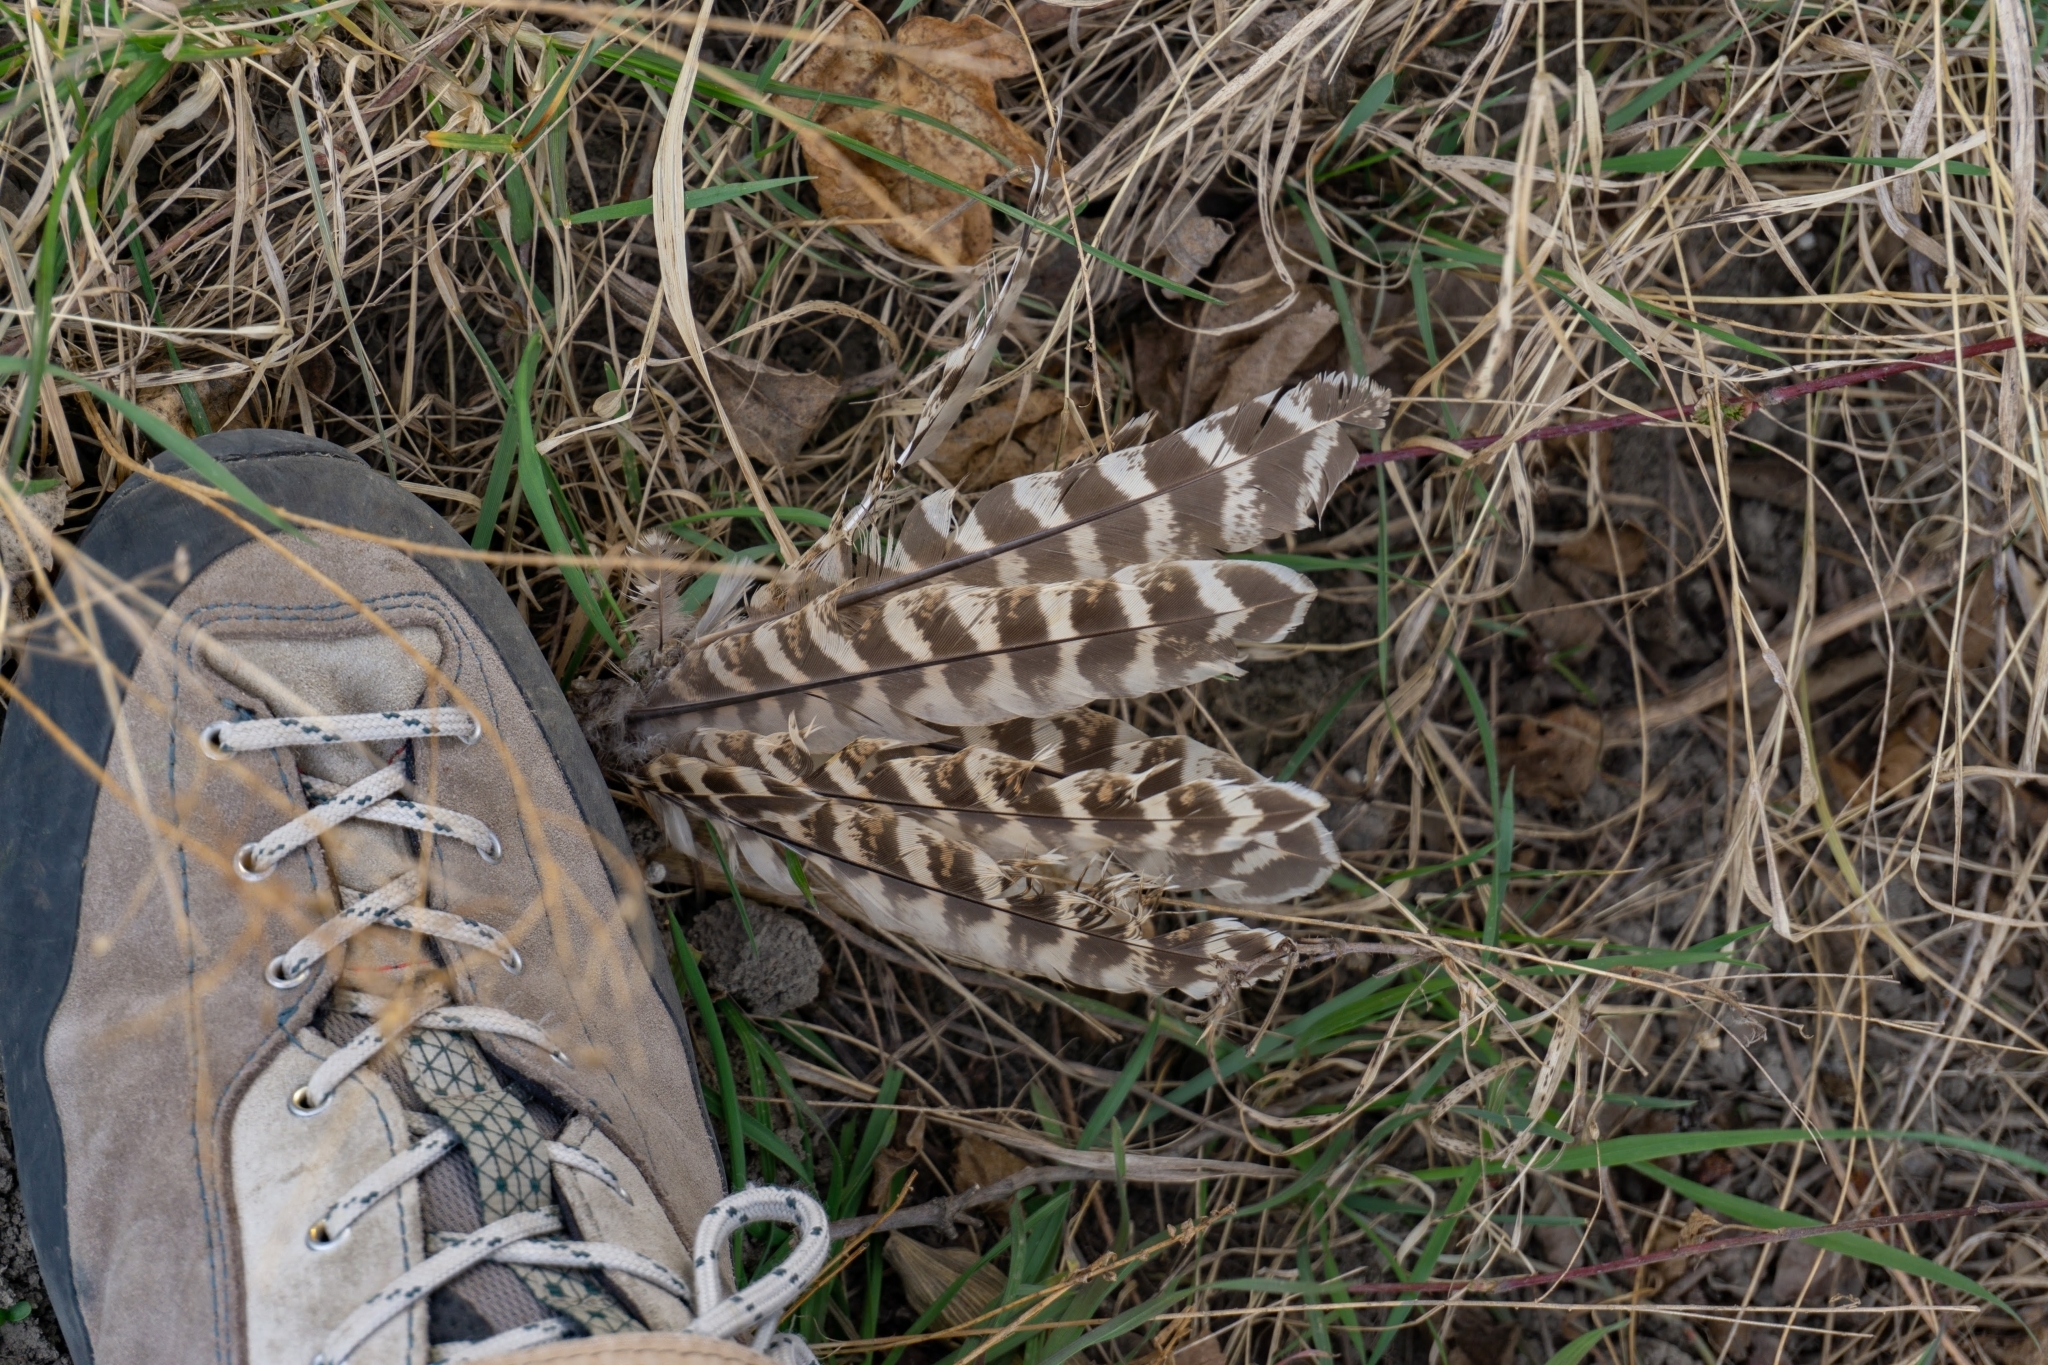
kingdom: Animalia
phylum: Chordata
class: Aves
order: Galliformes
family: Phasianidae
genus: Phasianus
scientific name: Phasianus colchicus
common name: Common pheasant
